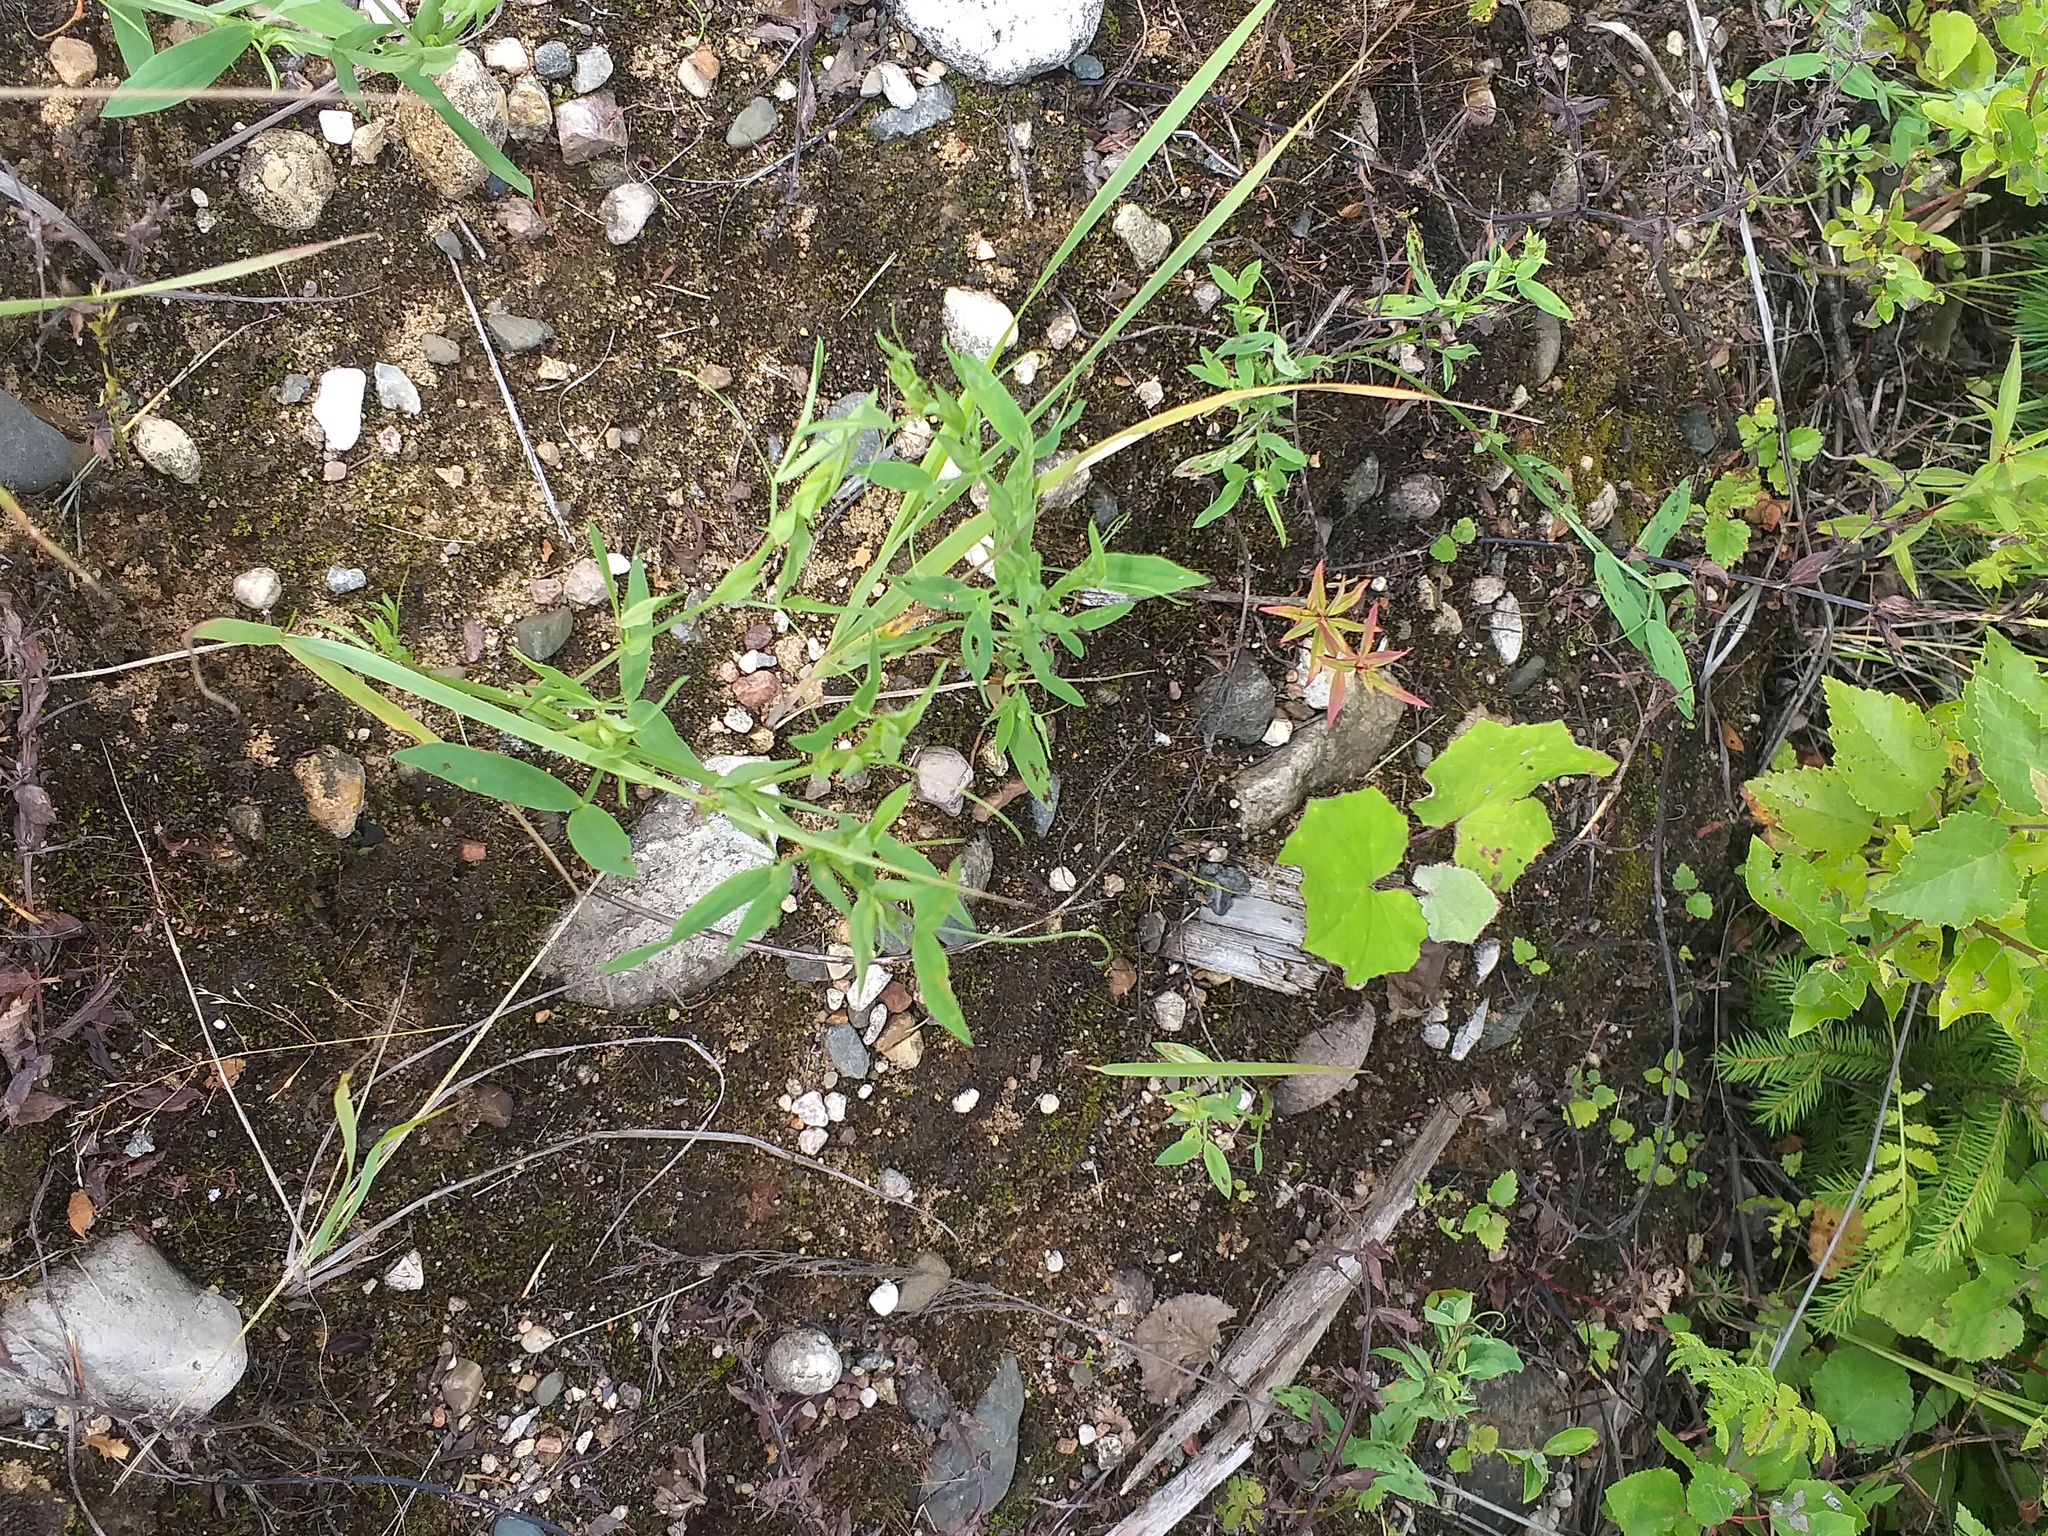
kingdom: Plantae
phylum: Tracheophyta
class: Magnoliopsida
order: Fabales
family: Fabaceae
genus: Lathyrus
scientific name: Lathyrus pratensis
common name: Meadow vetchling
